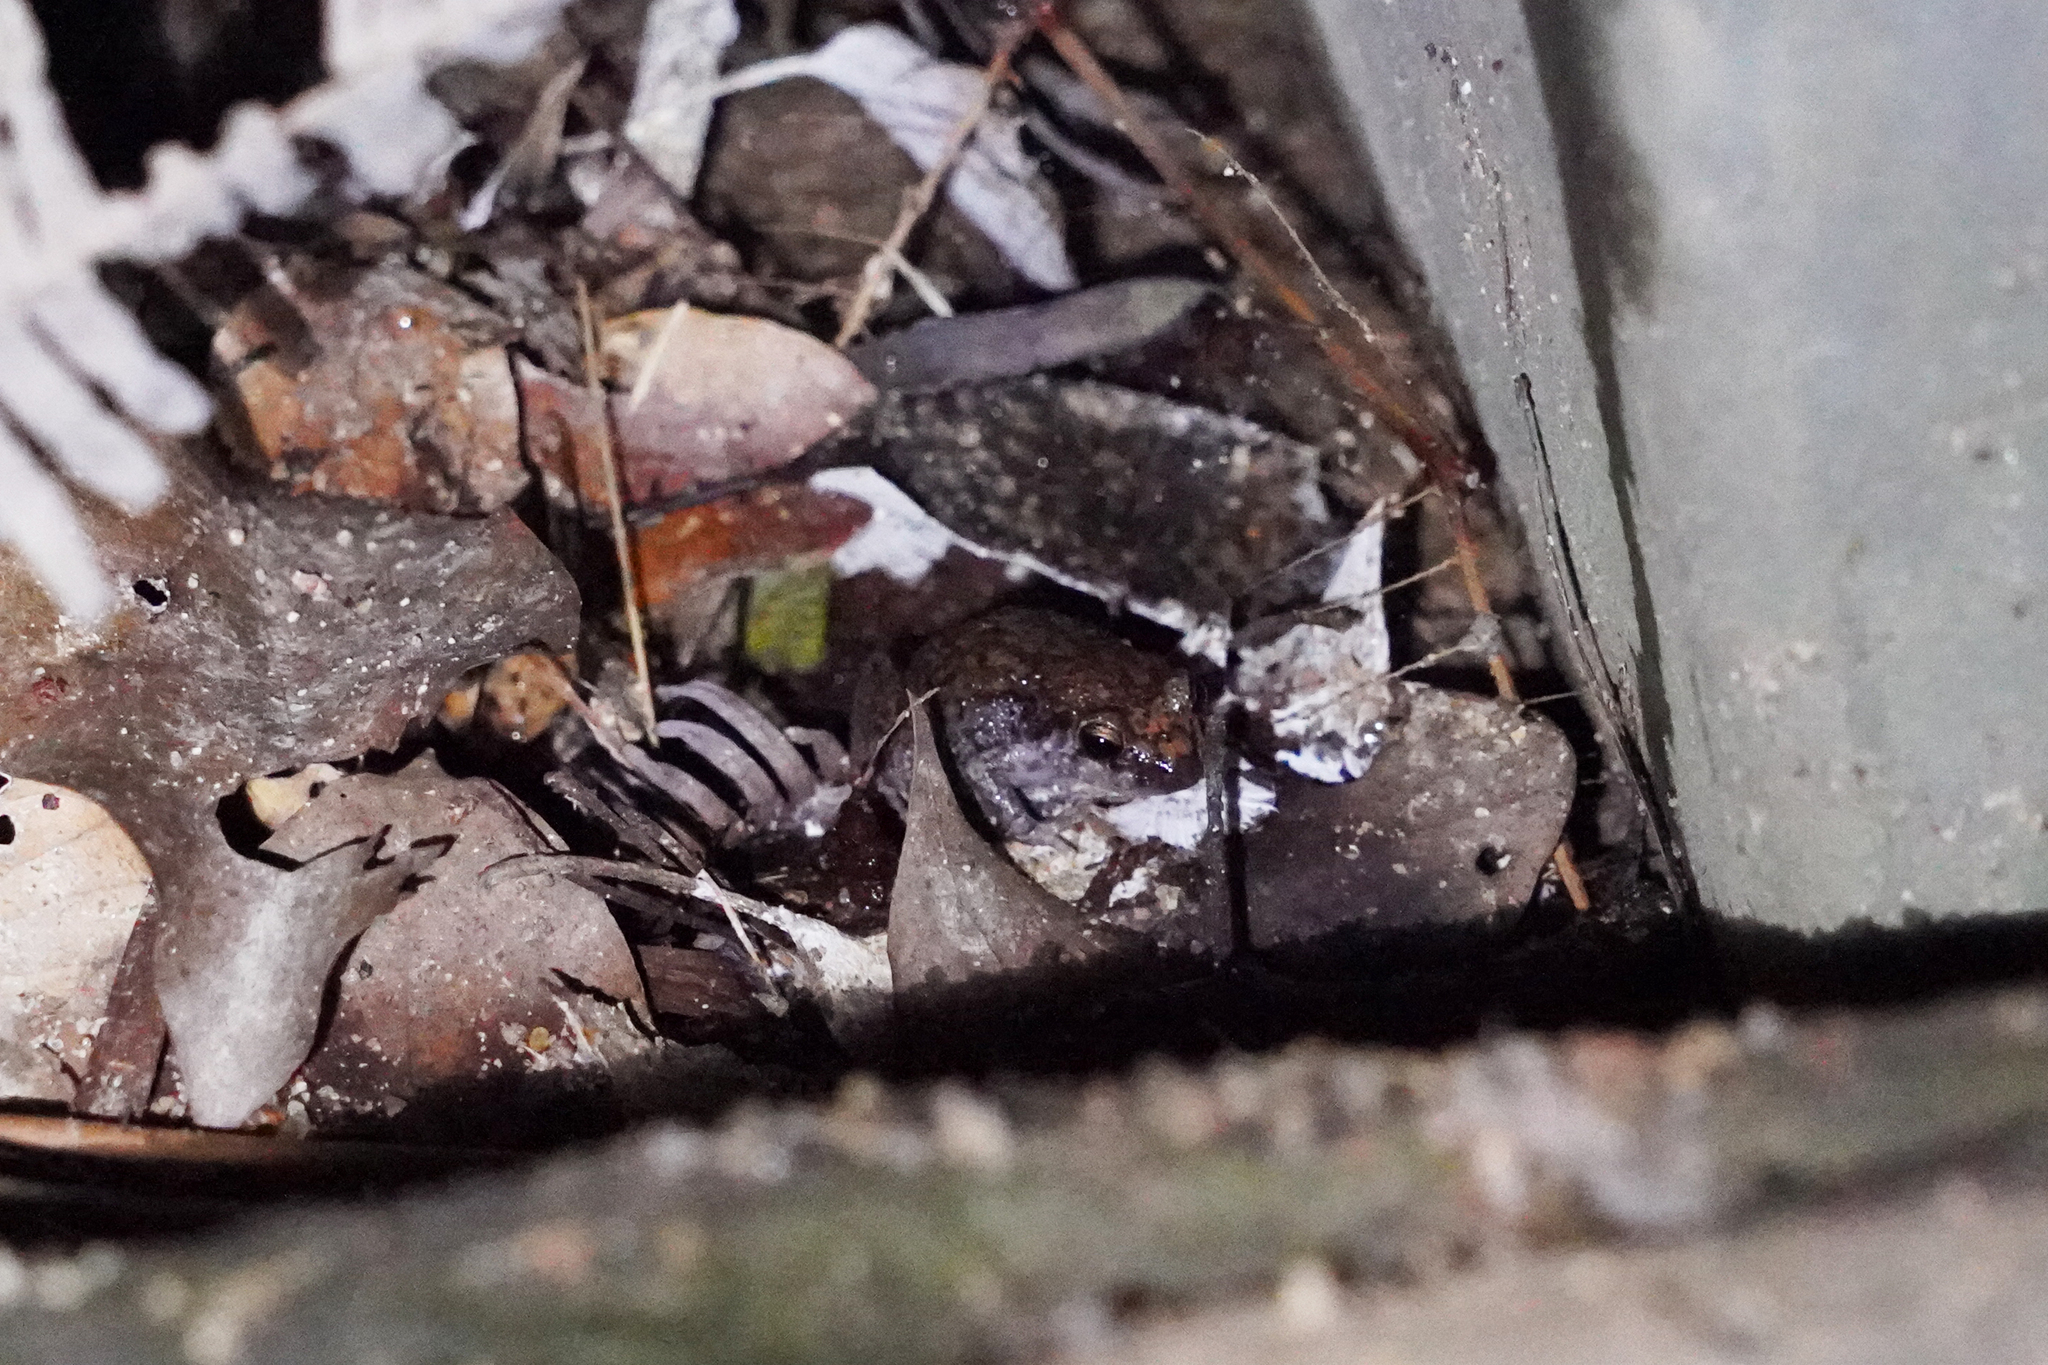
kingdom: Animalia
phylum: Chordata
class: Amphibia
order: Anura
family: Eleutherodactylidae
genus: Eleutherodactylus
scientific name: Eleutherodactylus planirostris
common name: Greenhouse frog
